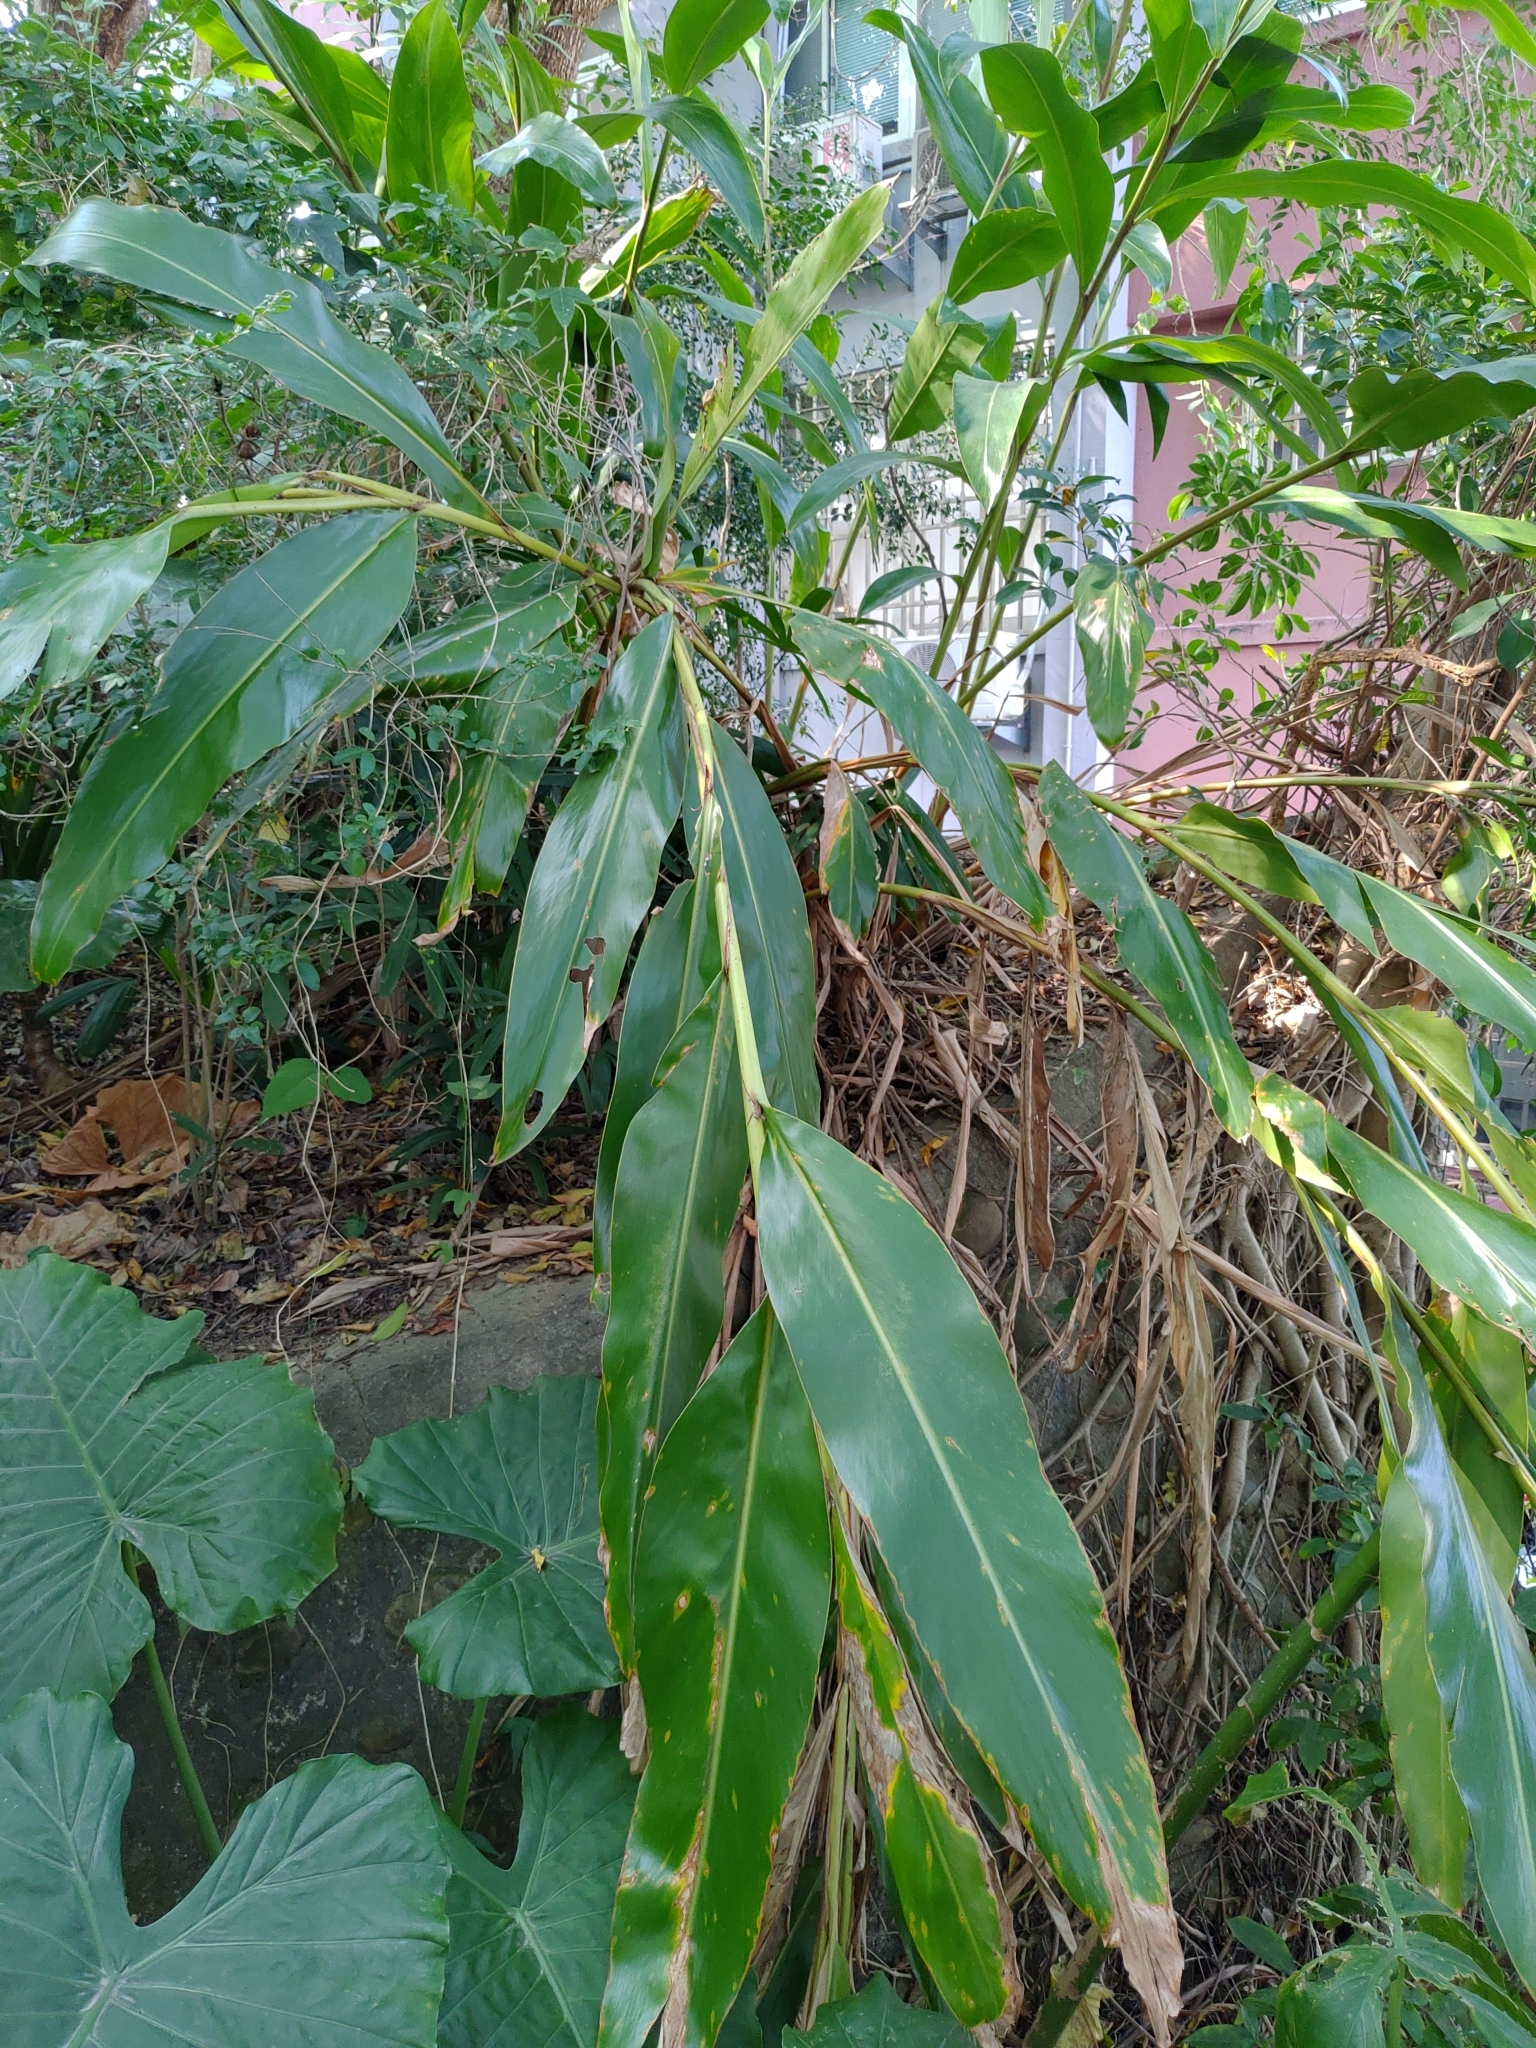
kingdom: Plantae
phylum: Tracheophyta
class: Liliopsida
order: Zingiberales
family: Zingiberaceae
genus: Alpinia
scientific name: Alpinia zerumbet
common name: Shellplant
